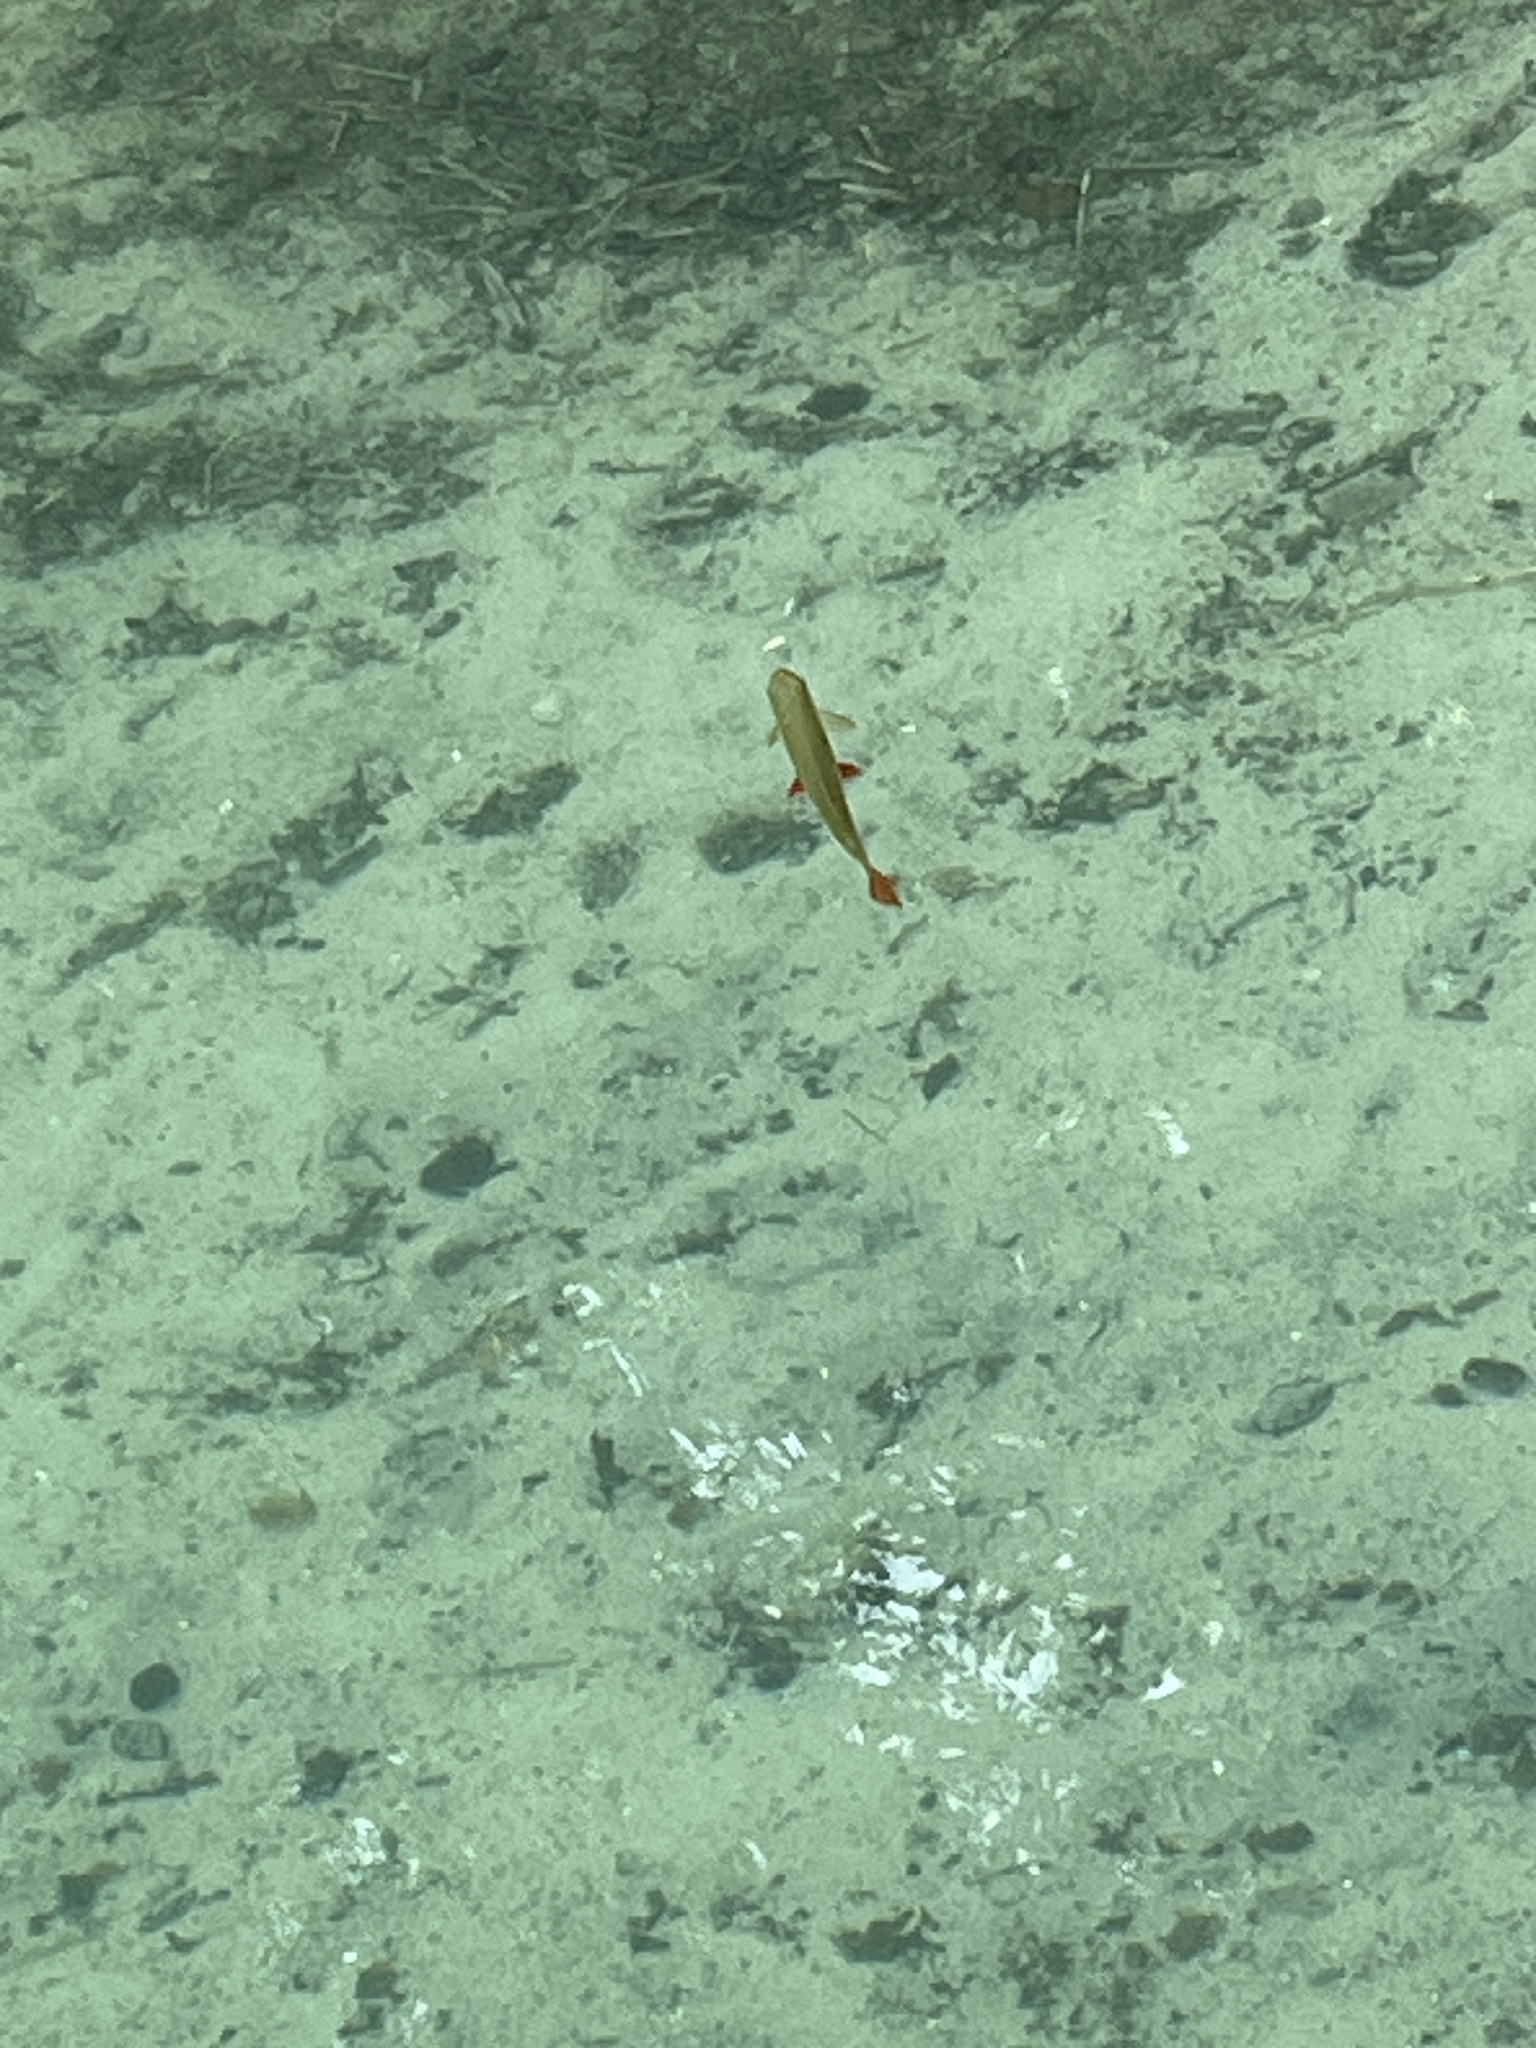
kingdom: Animalia
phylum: Chordata
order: Cypriniformes
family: Cyprinidae
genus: Scardinius
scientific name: Scardinius erythrophthalmus
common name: Rudd
